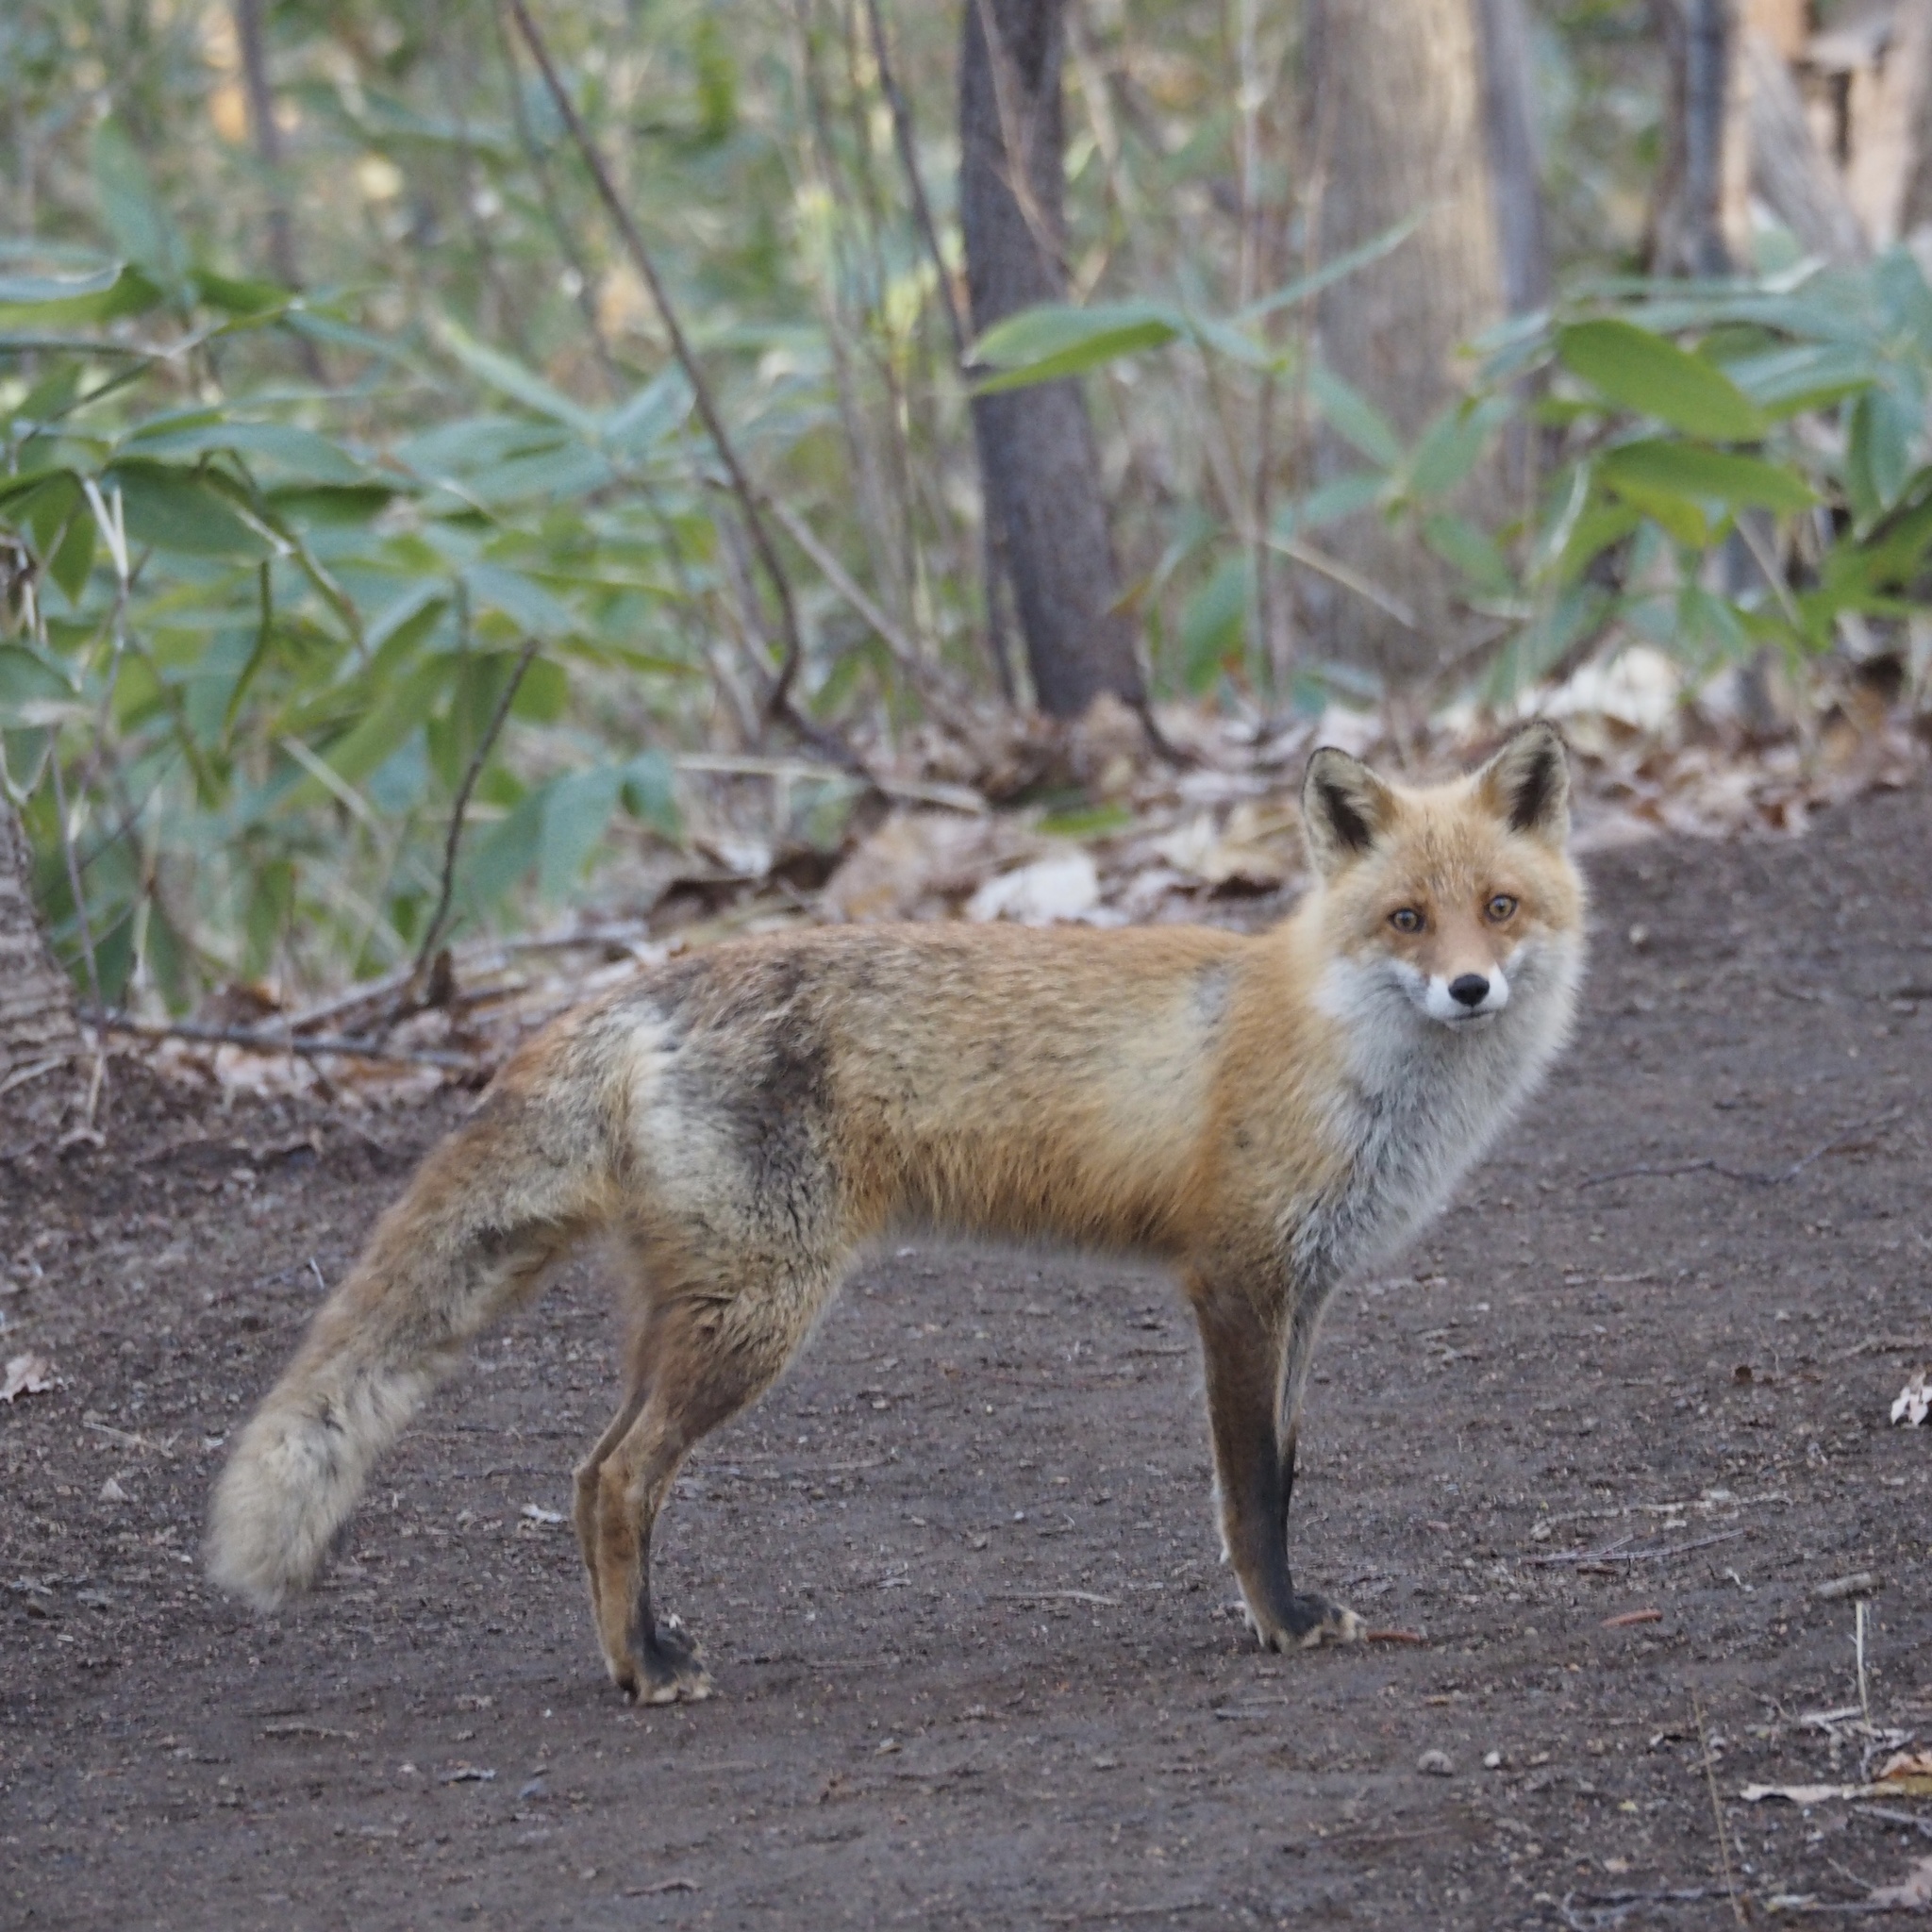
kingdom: Animalia
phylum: Chordata
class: Mammalia
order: Carnivora
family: Canidae
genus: Vulpes
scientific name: Vulpes vulpes
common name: Red fox
